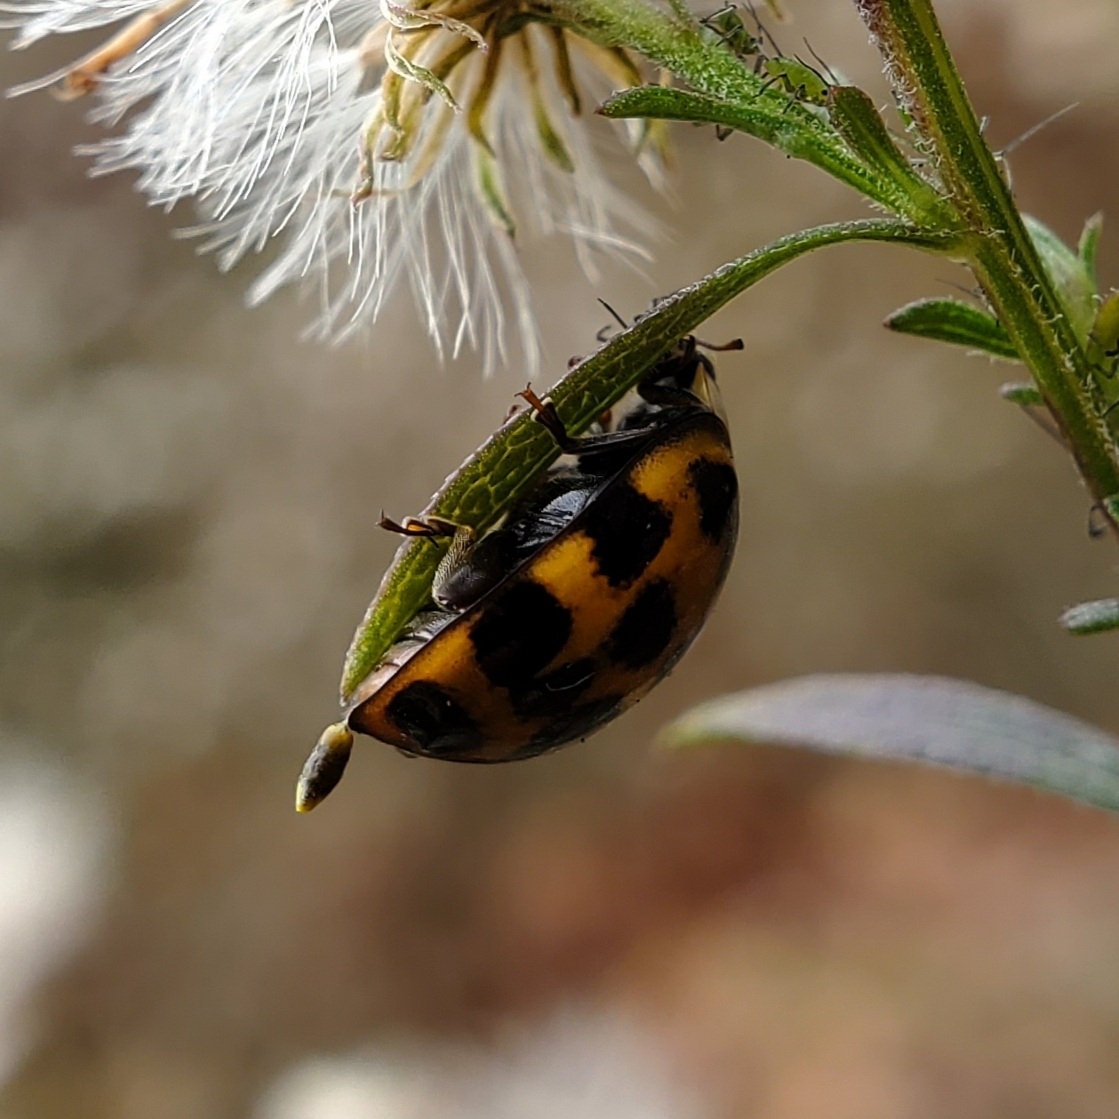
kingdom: Animalia
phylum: Arthropoda
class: Insecta
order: Coleoptera
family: Coccinellidae
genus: Harmonia
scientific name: Harmonia axyridis
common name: Harlequin ladybird
